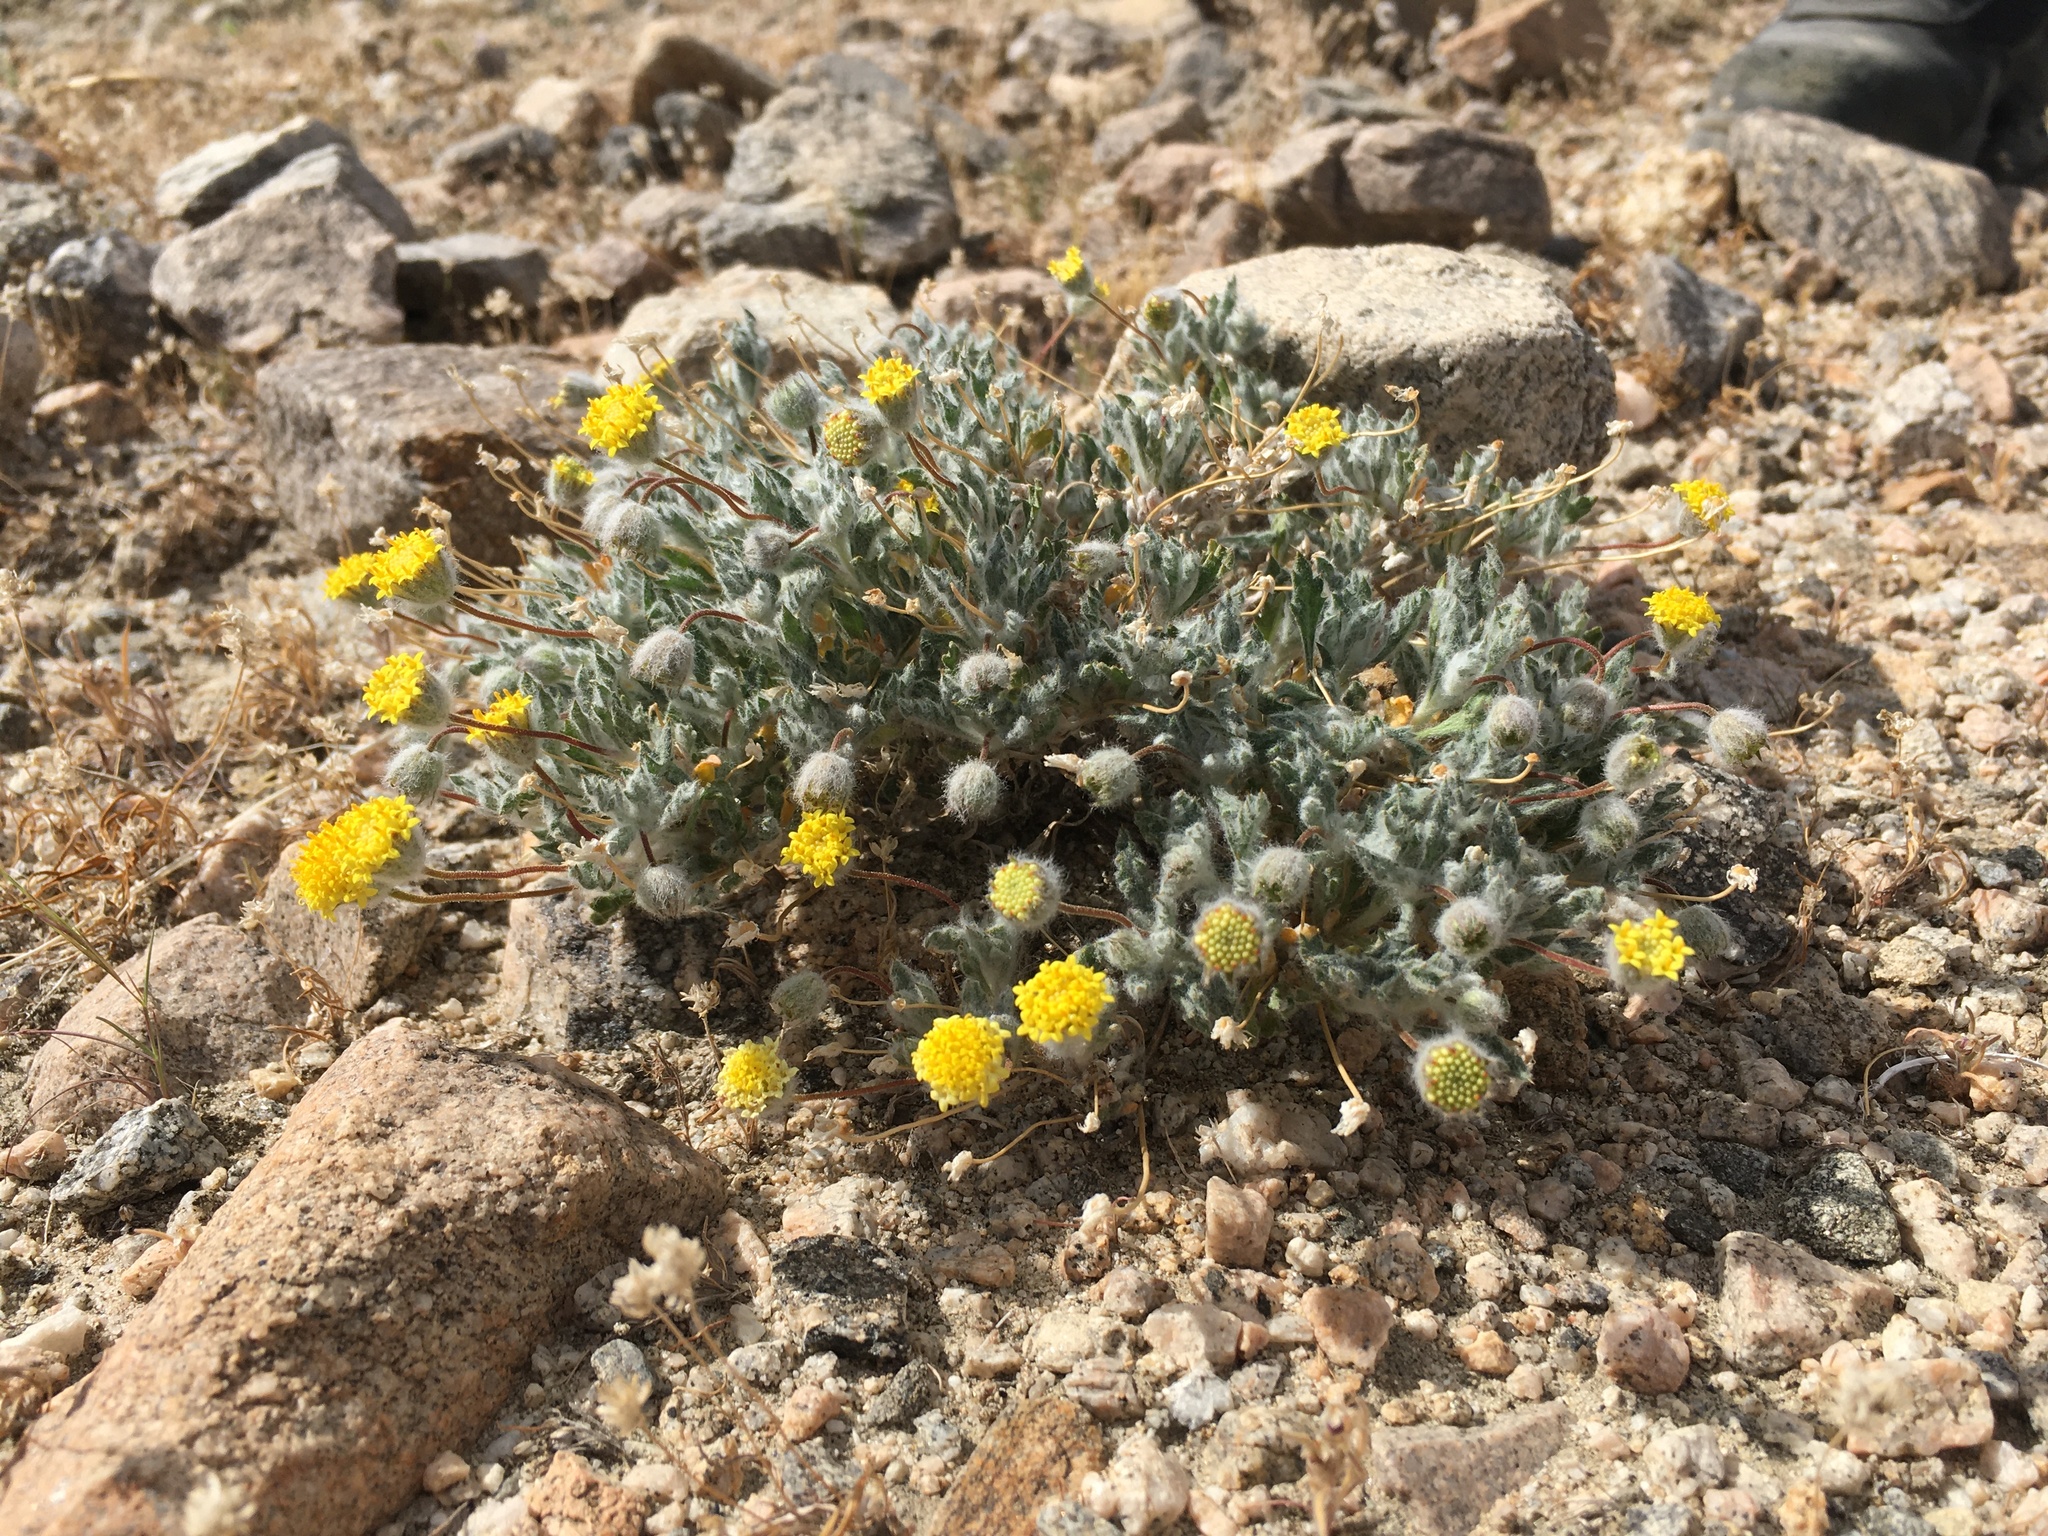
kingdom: Plantae
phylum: Tracheophyta
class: Magnoliopsida
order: Asterales
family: Asteraceae
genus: Trichoptilium
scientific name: Trichoptilium incisum
